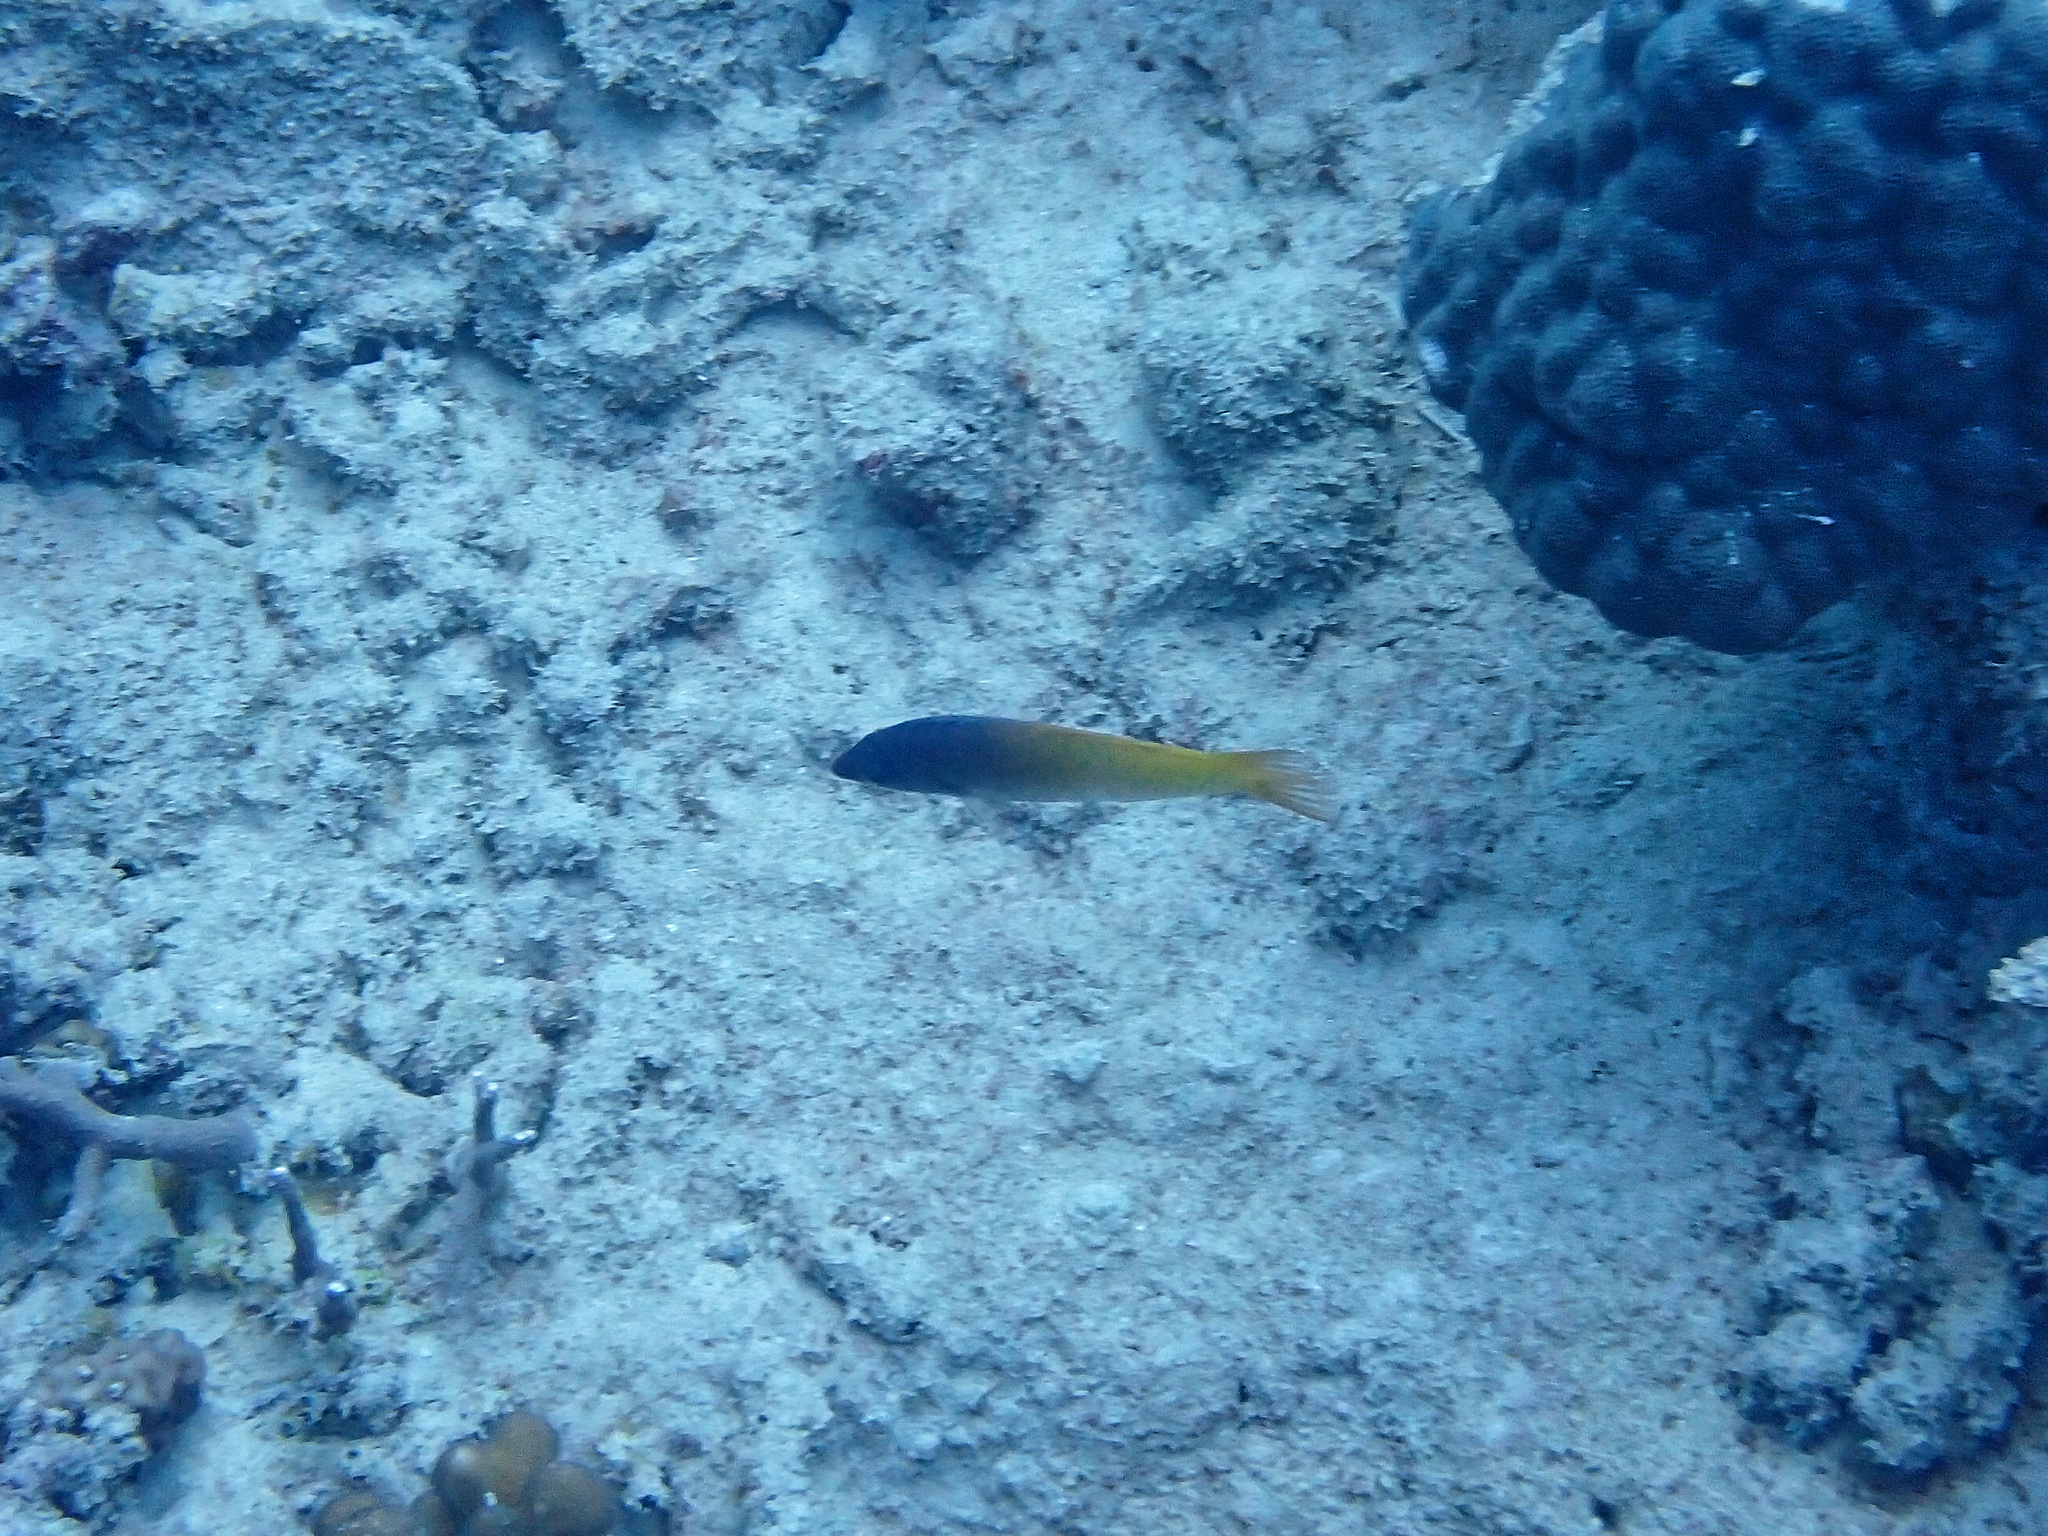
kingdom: Animalia
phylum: Chordata
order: Perciformes
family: Labridae
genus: Halichoeres
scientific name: Halichoeres prosopeion
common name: Half-grey wrasse
